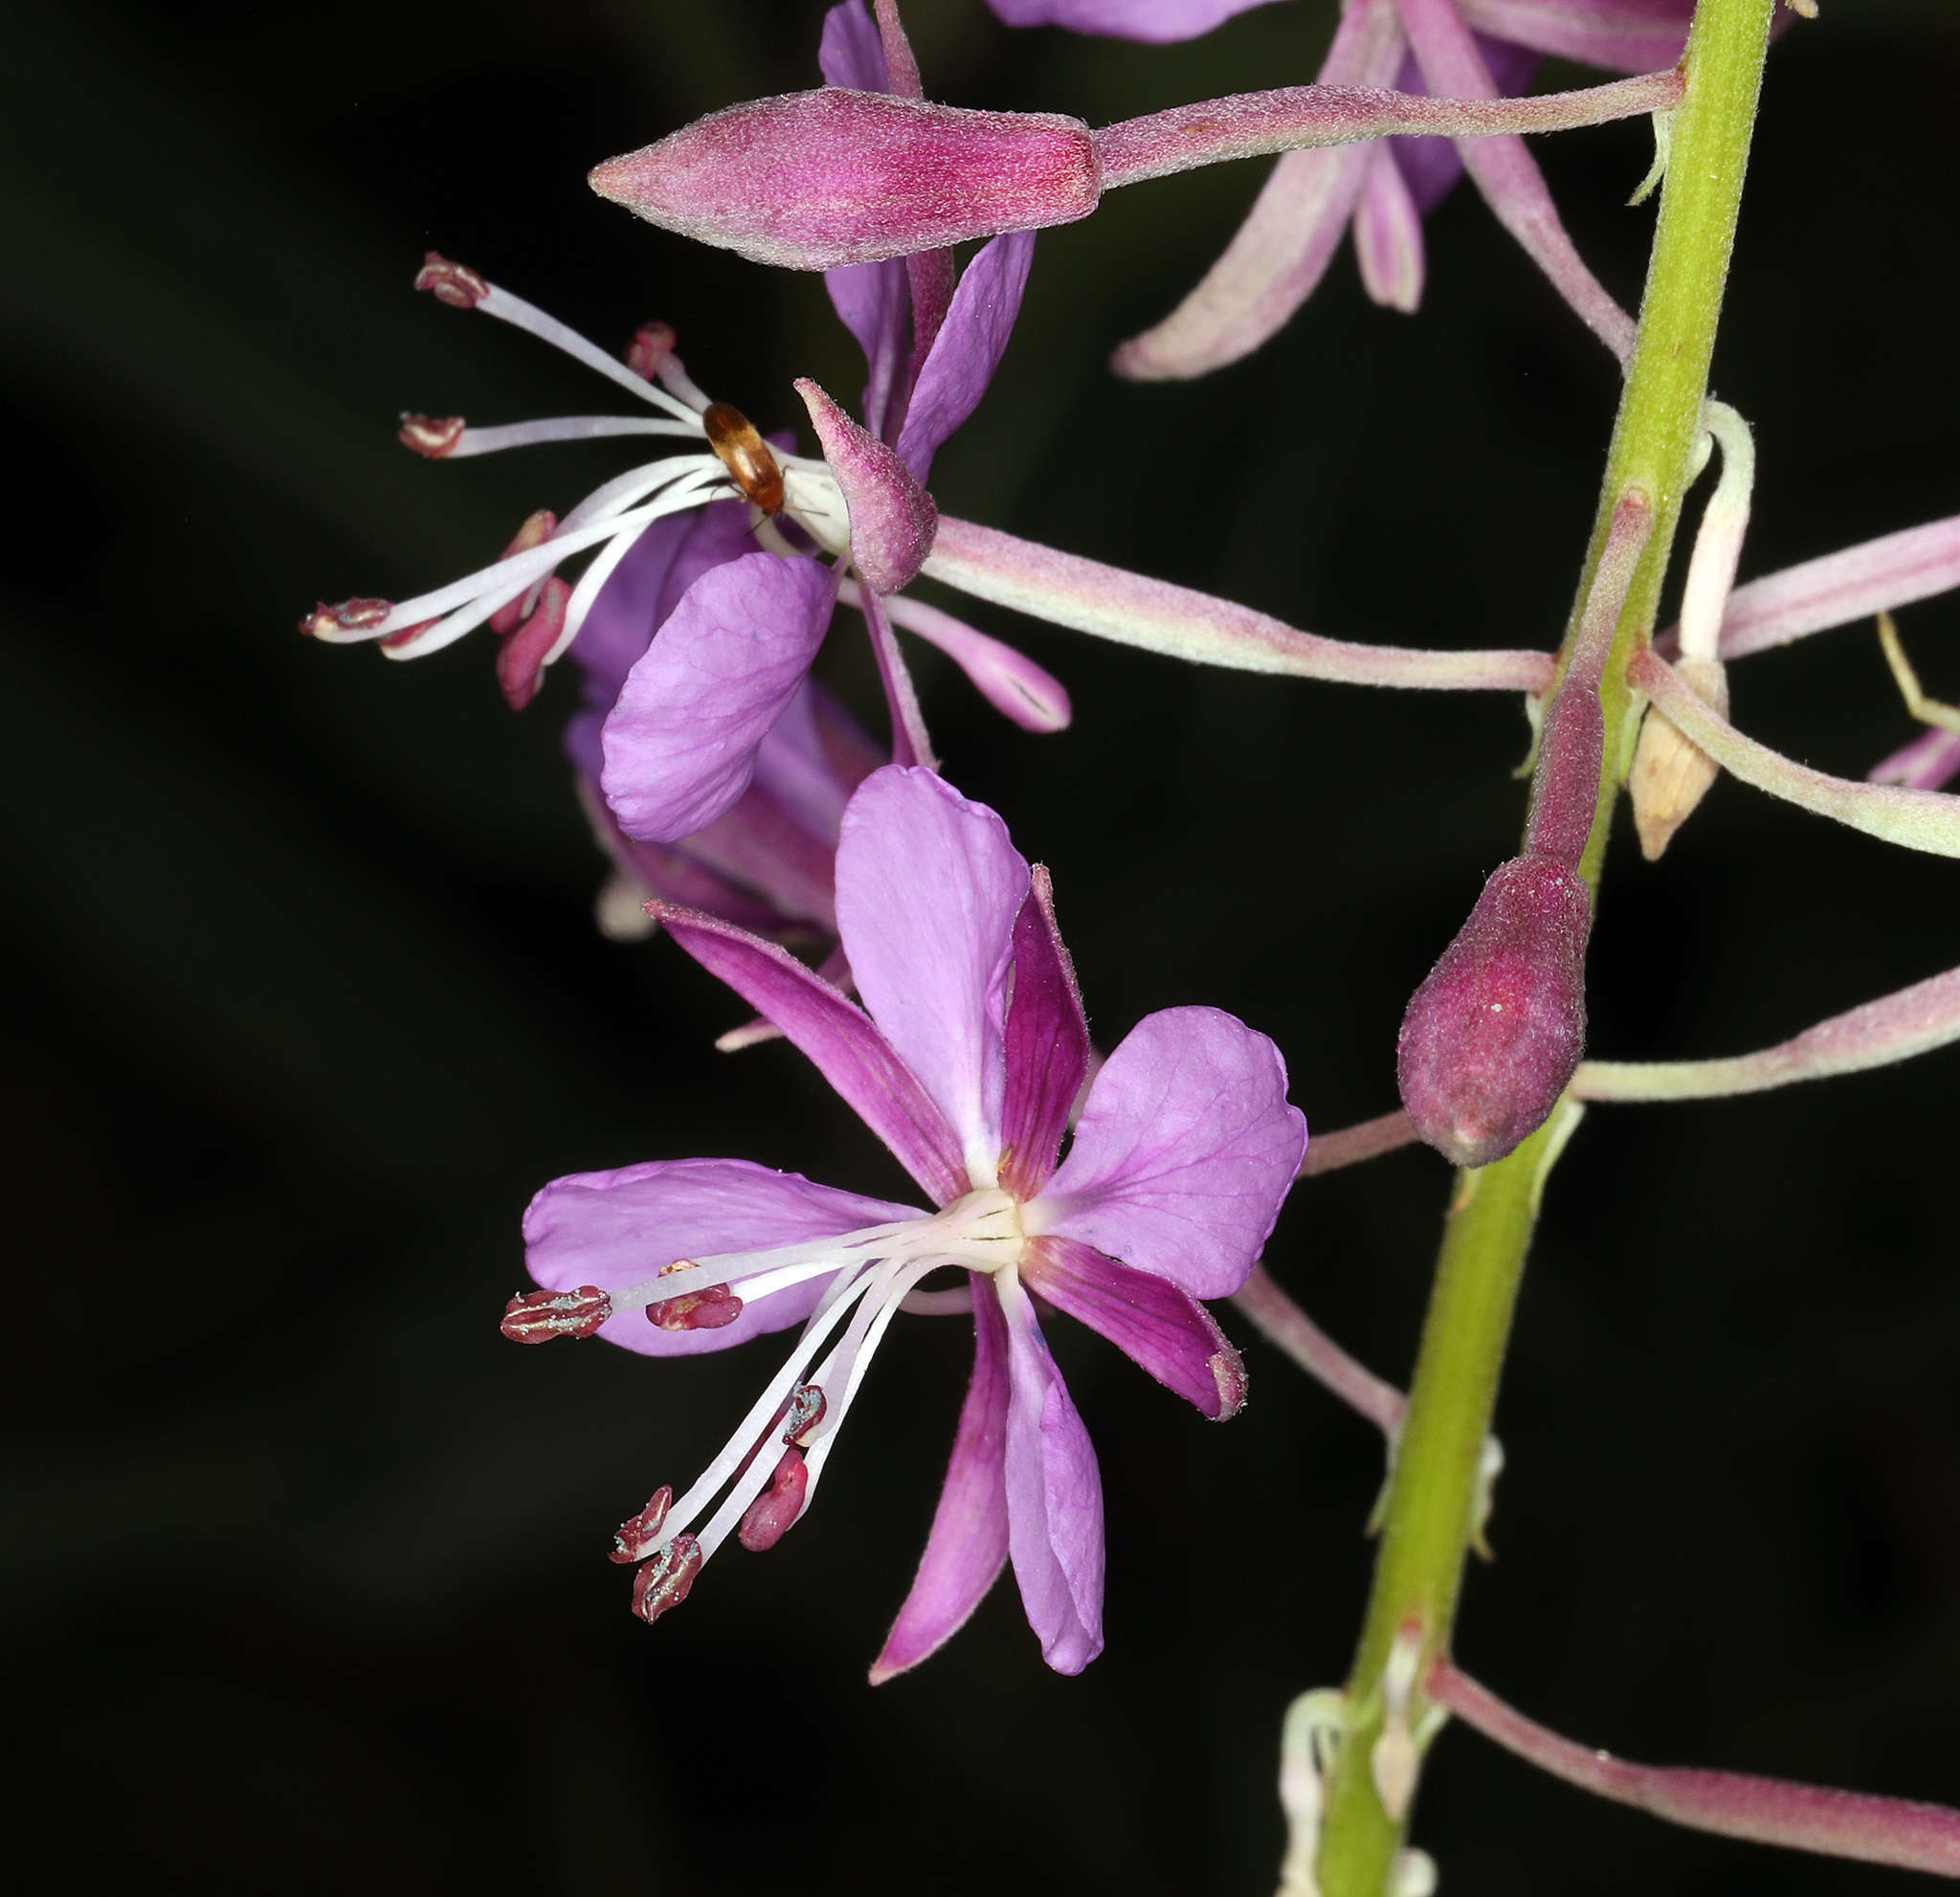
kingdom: Plantae
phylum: Tracheophyta
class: Magnoliopsida
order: Myrtales
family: Onagraceae
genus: Chamaenerion
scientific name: Chamaenerion angustifolium
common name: Fireweed
